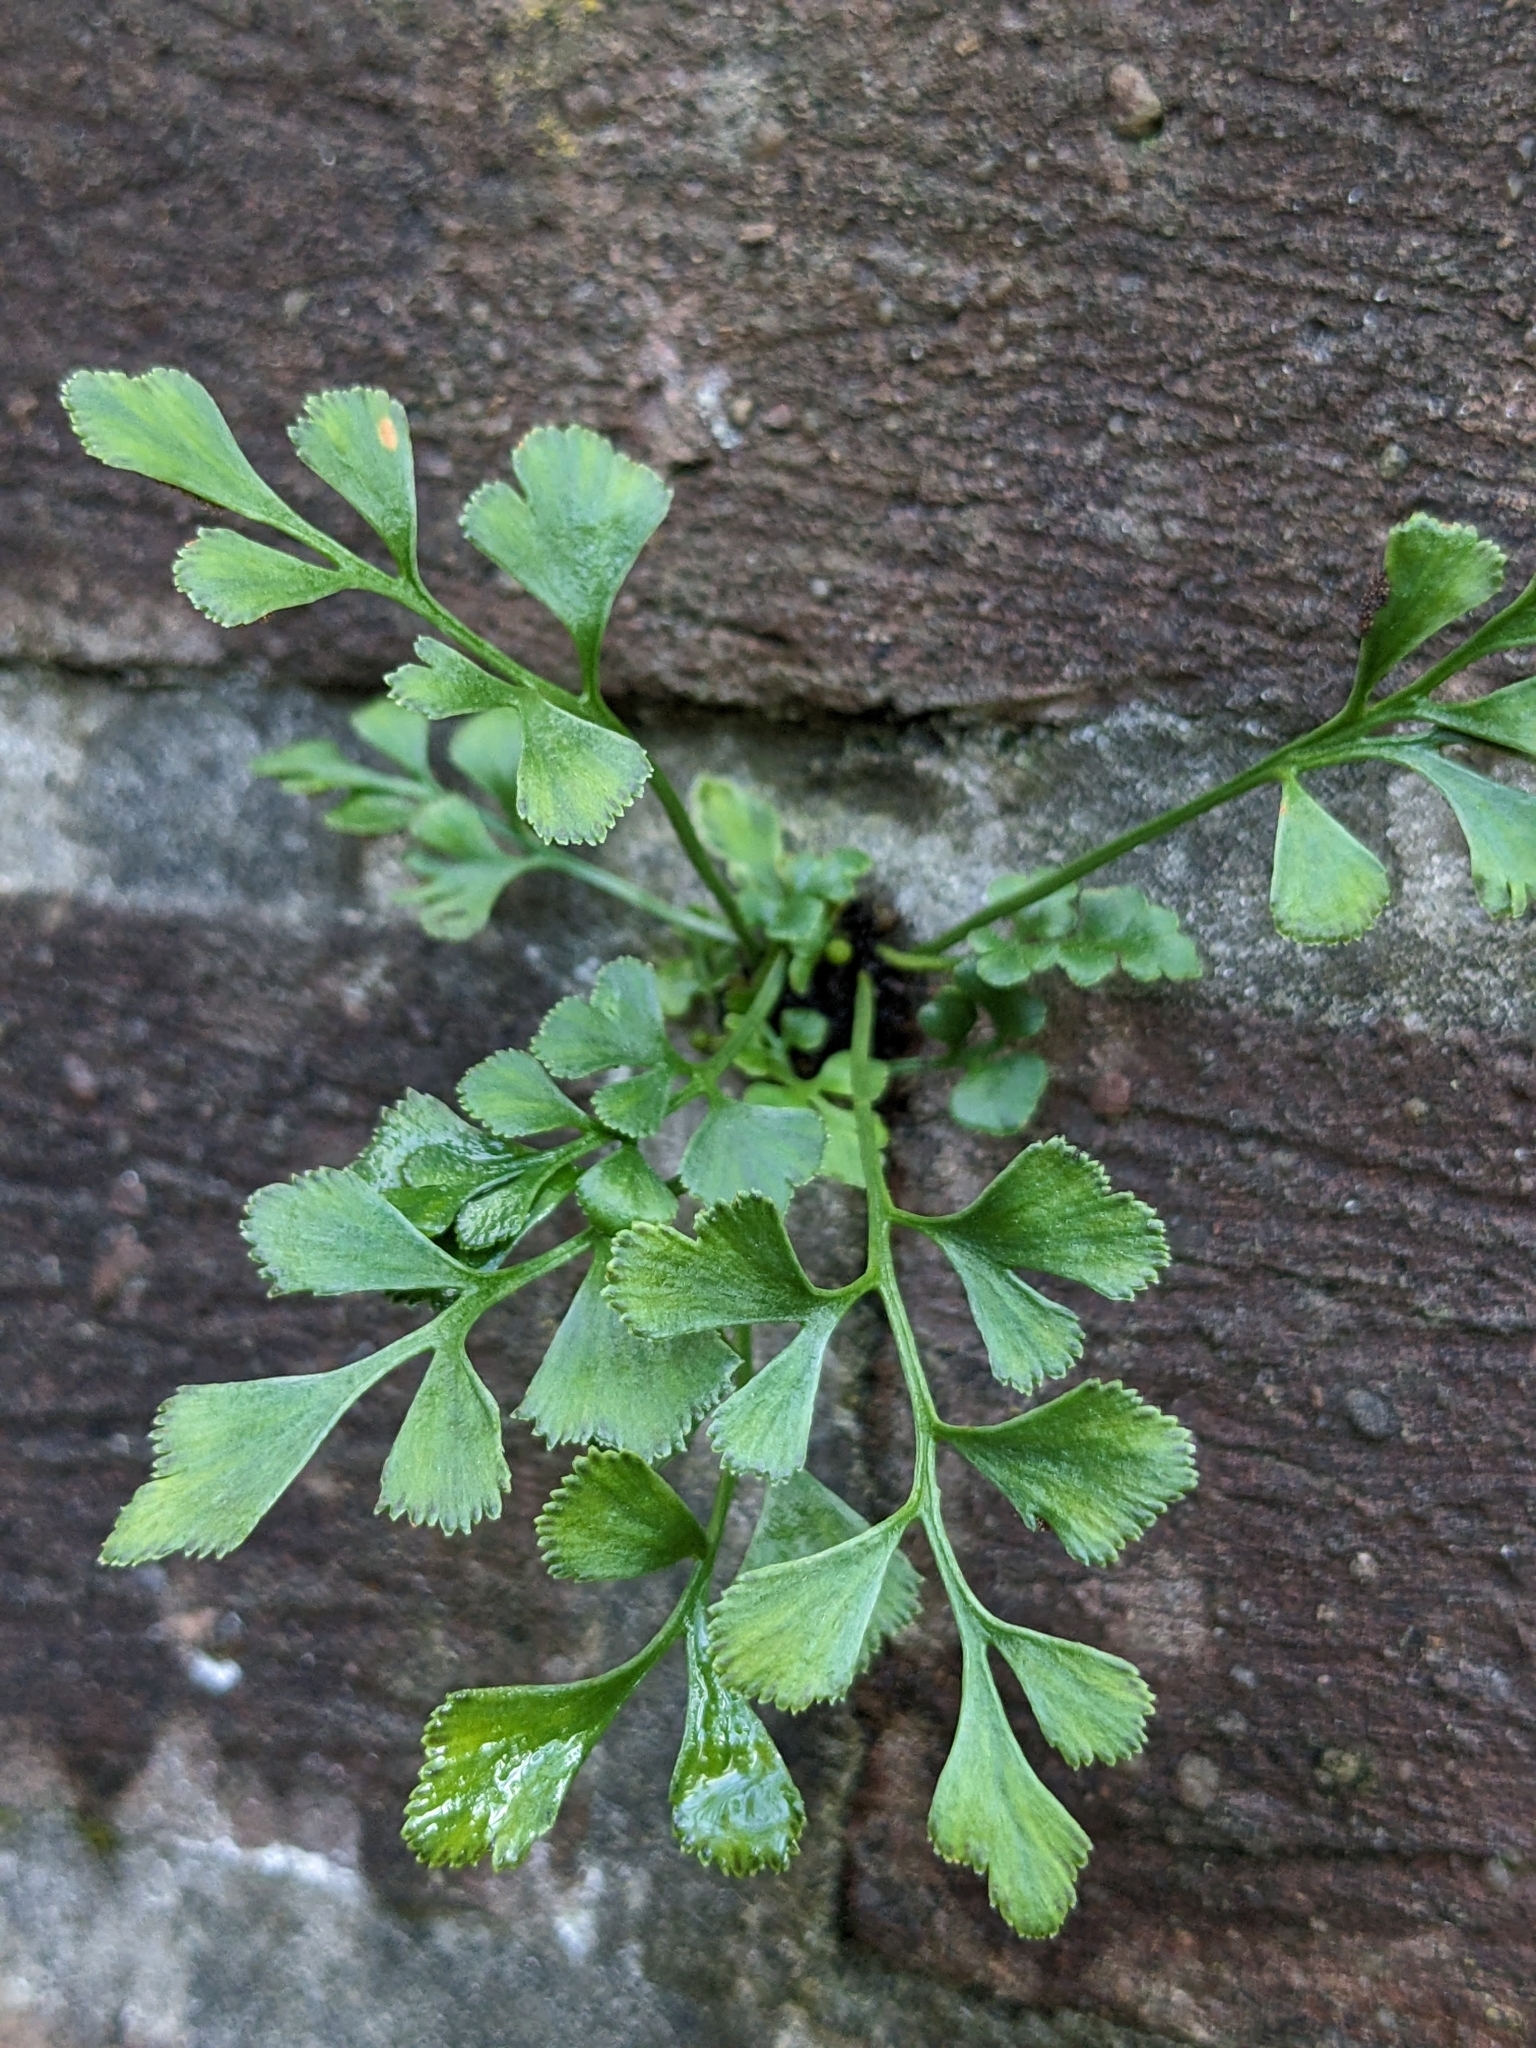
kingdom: Plantae
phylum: Tracheophyta
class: Polypodiopsida
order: Polypodiales
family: Aspleniaceae
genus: Asplenium
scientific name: Asplenium ruta-muraria
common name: Wall-rue
